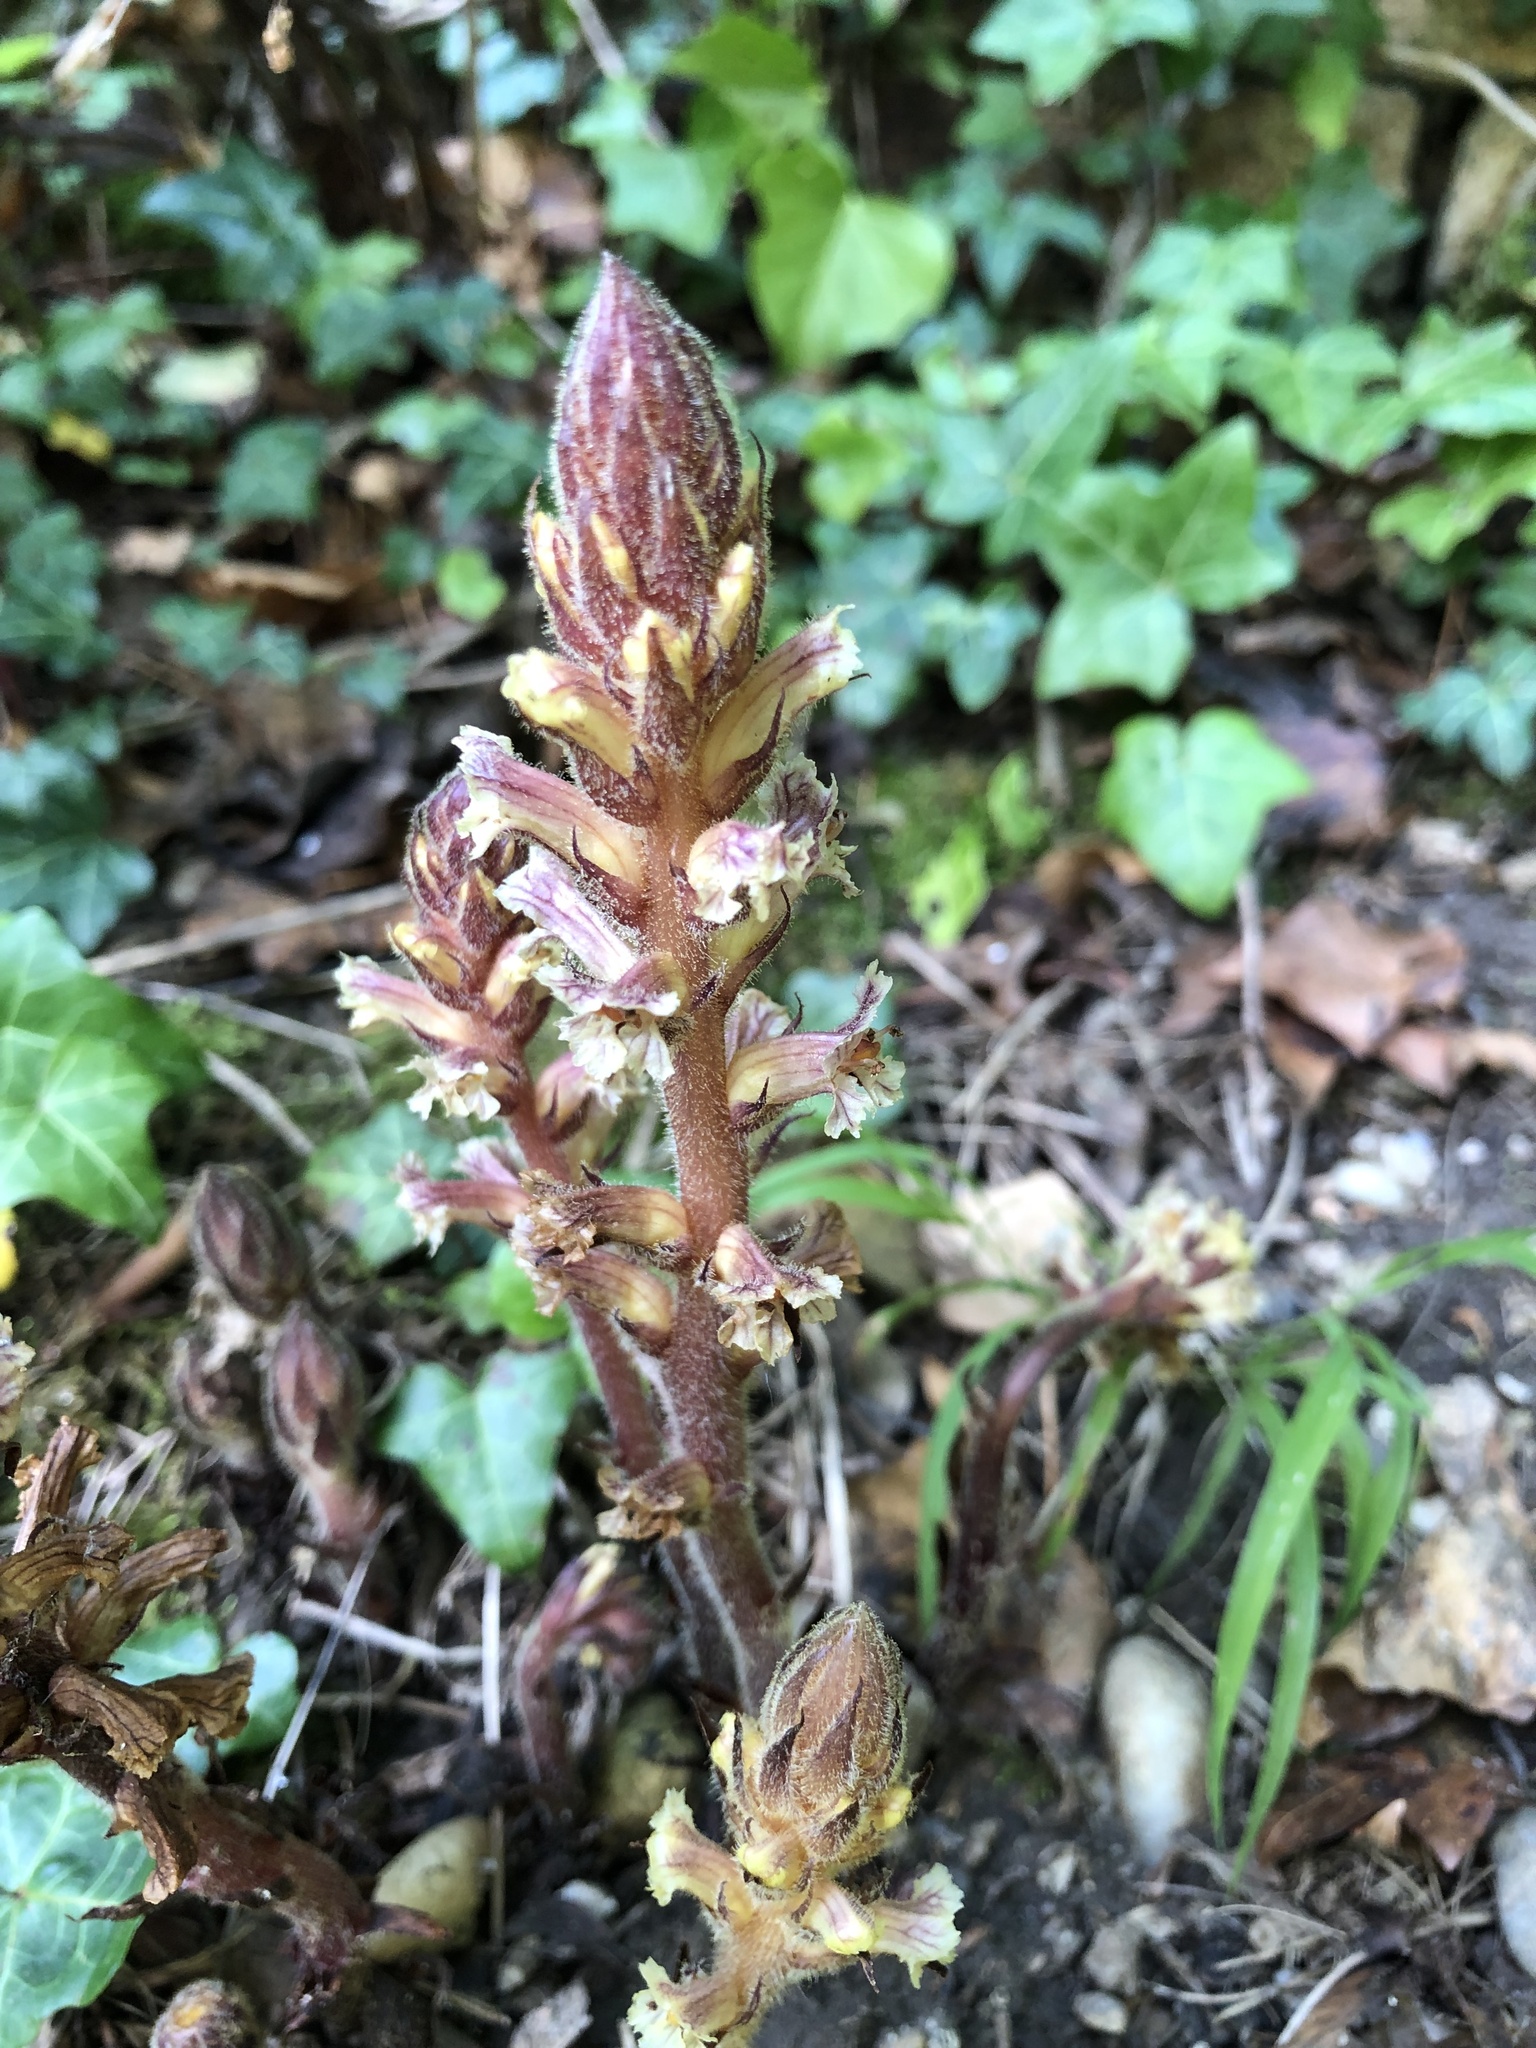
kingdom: Plantae
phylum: Tracheophyta
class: Magnoliopsida
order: Lamiales
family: Orobanchaceae
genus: Orobanche
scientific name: Orobanche hederae
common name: Ivy broomrape
